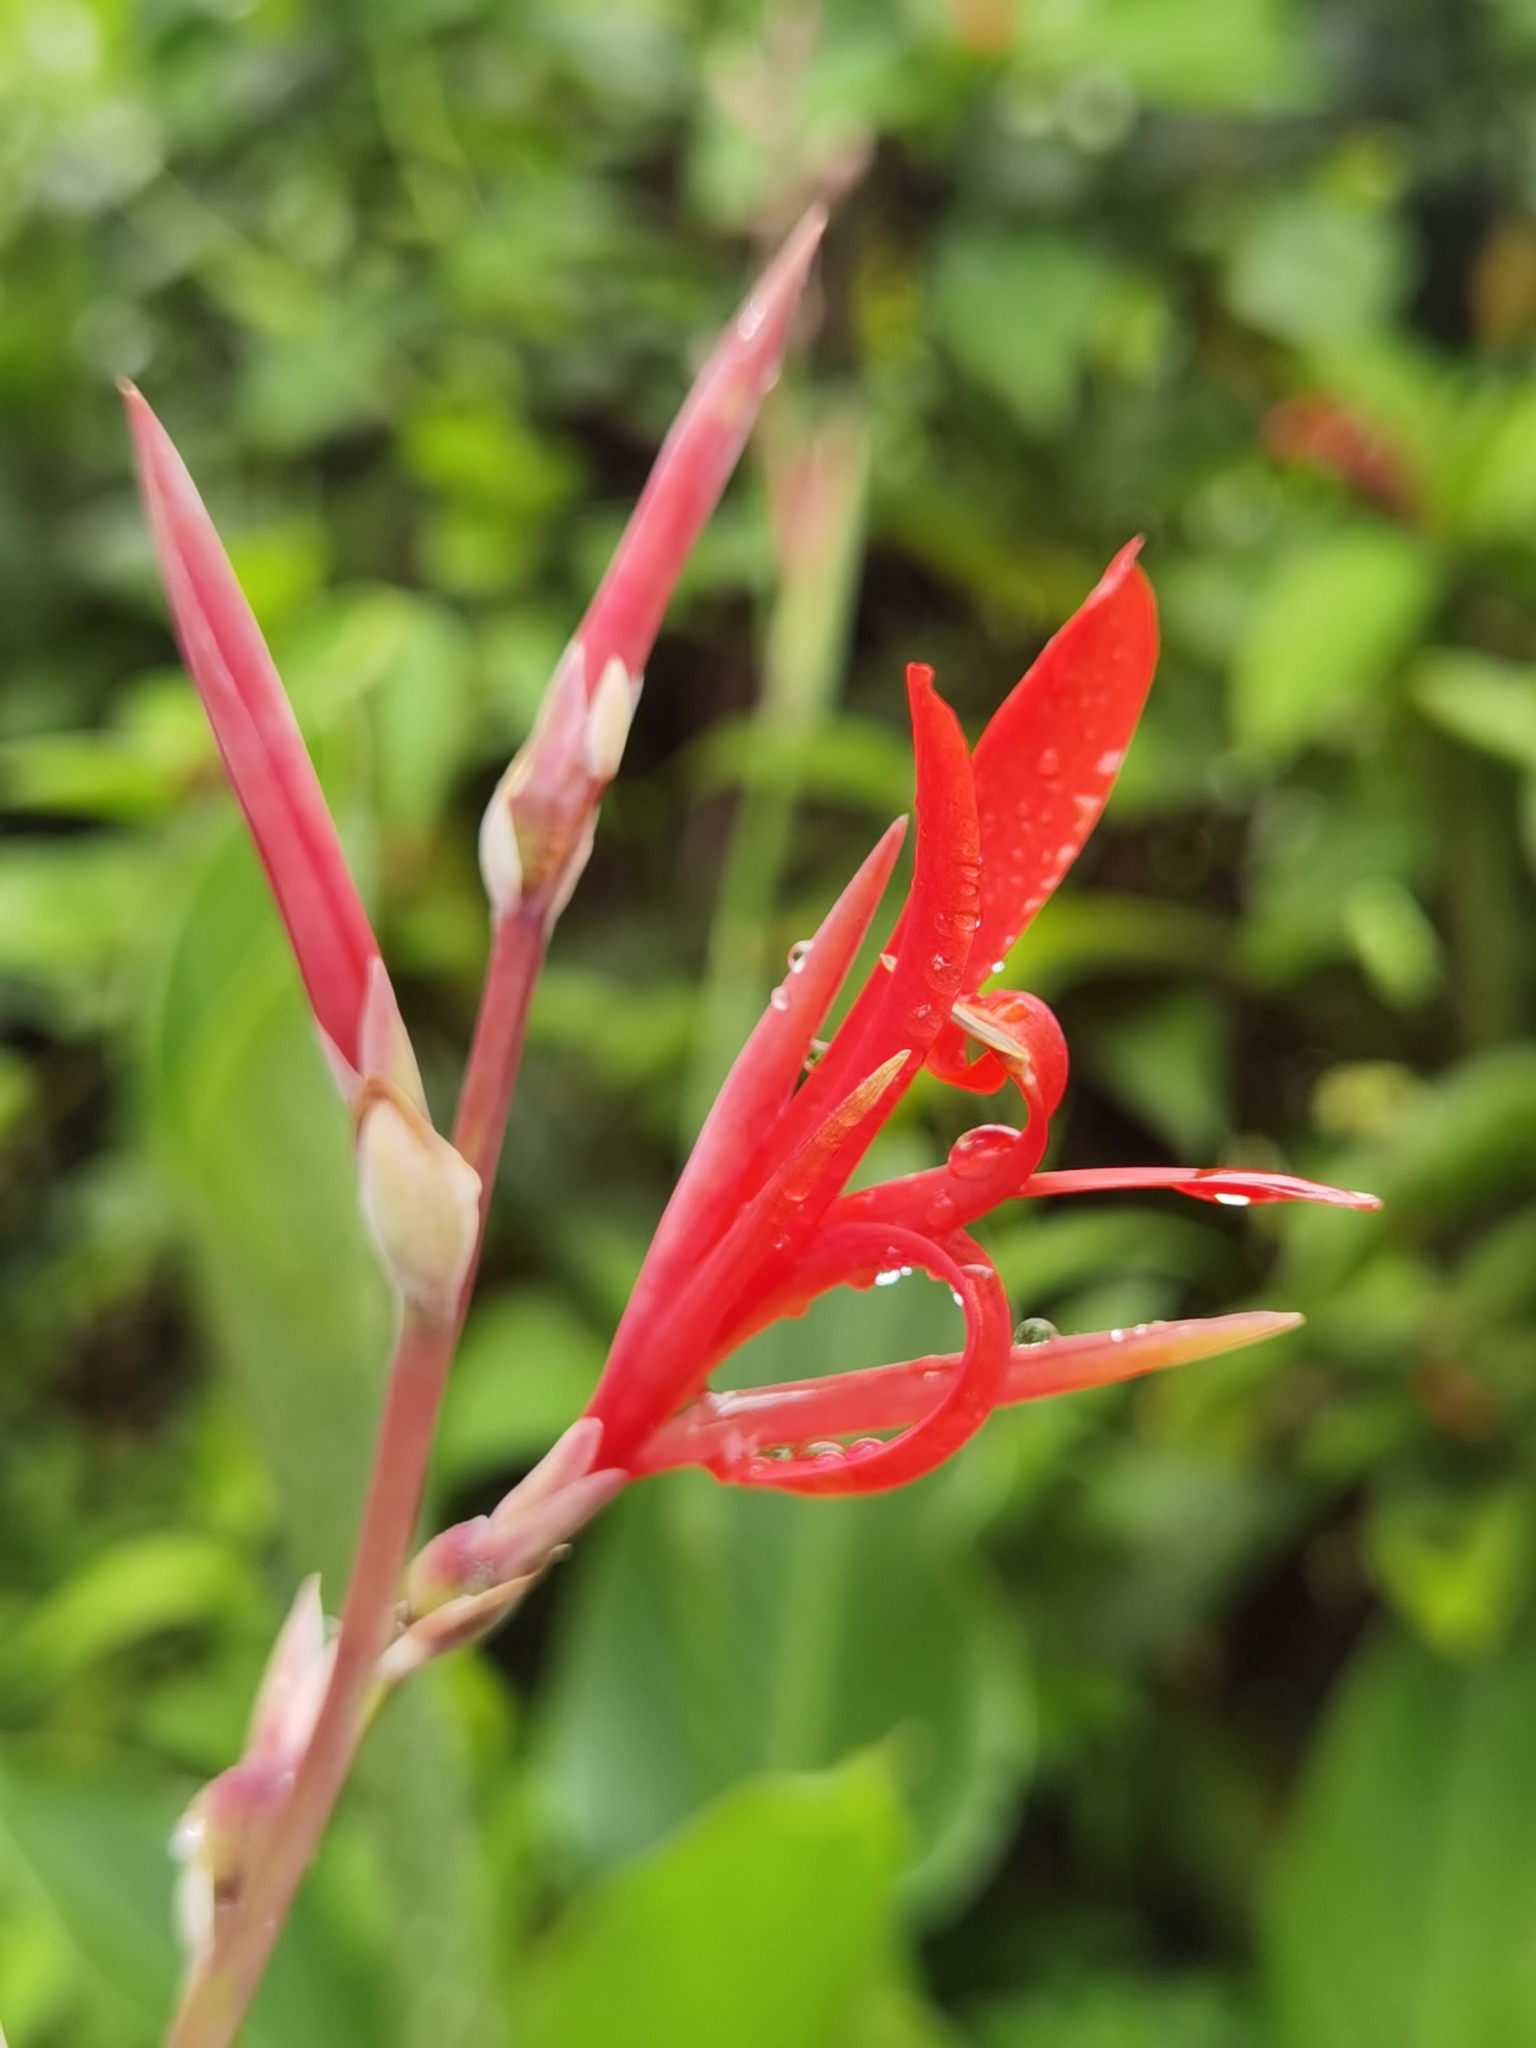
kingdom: Plantae
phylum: Tracheophyta
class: Liliopsida
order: Zingiberales
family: Cannaceae
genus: Canna
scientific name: Canna indica
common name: Indian shot
